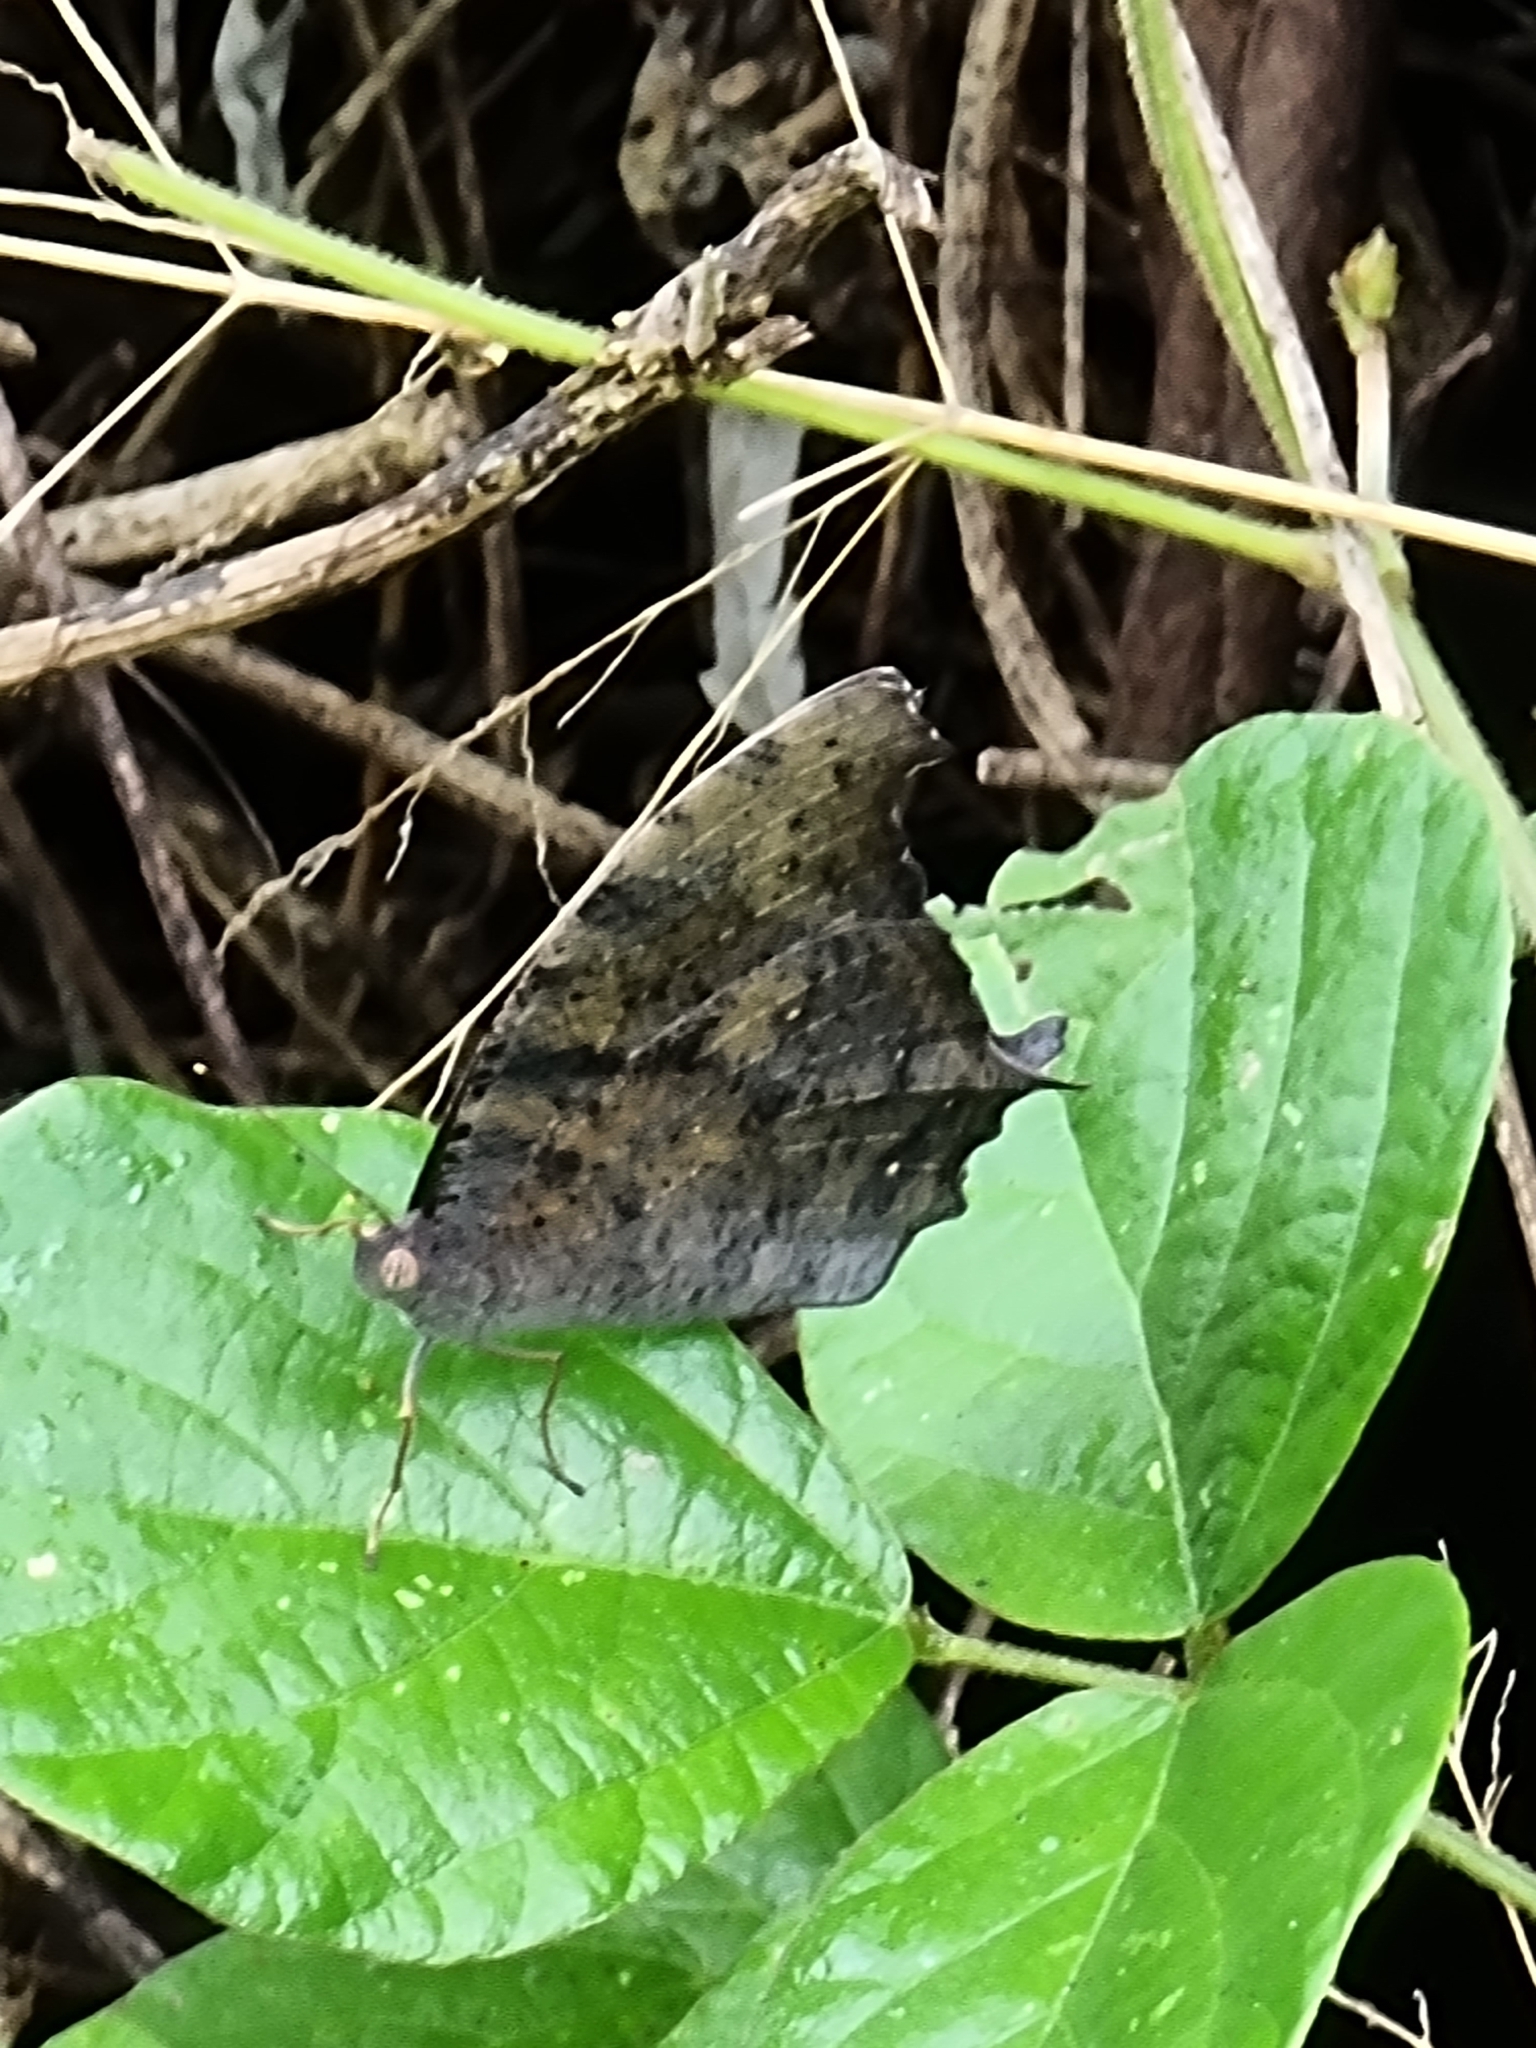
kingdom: Animalia
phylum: Arthropoda
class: Insecta
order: Lepidoptera
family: Nymphalidae
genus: Melanitis
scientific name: Melanitis leda
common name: Twilight brown
